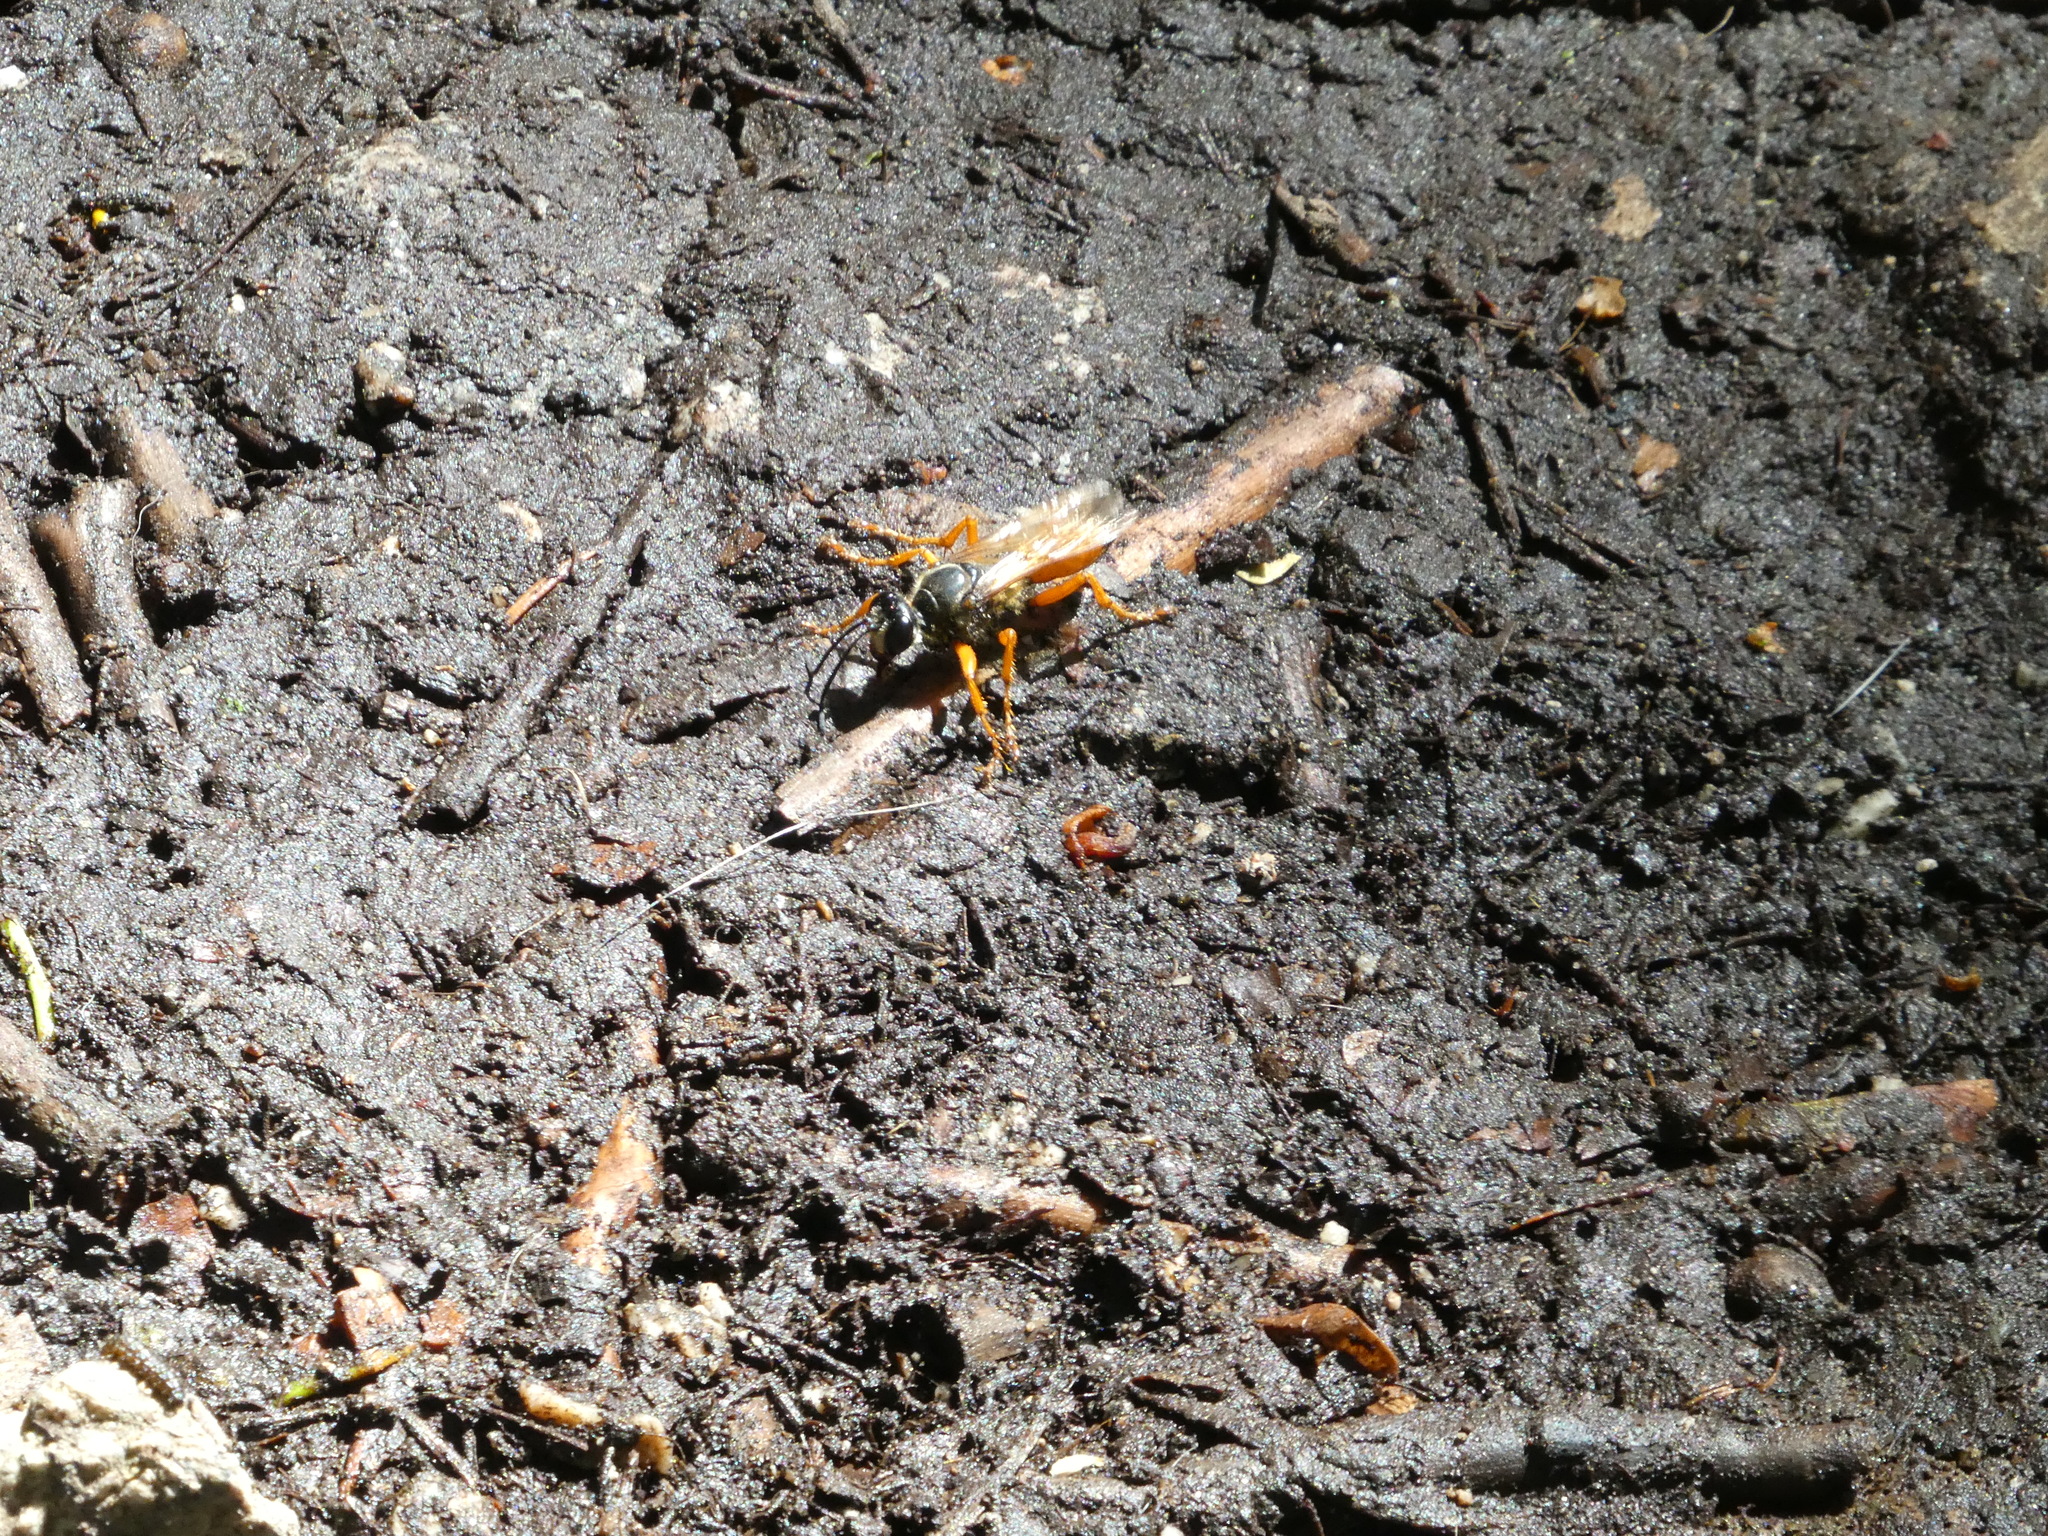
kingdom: Animalia
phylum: Arthropoda
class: Insecta
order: Hymenoptera
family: Sphecidae
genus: Sphex
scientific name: Sphex ichneumoneus
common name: Great golden digger wasp
